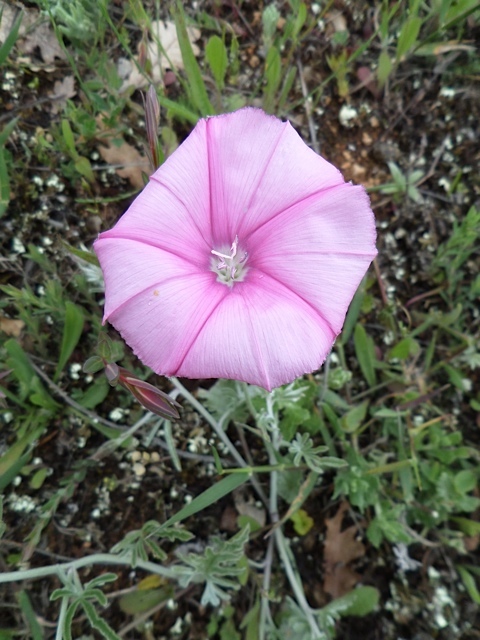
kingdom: Plantae
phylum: Tracheophyta
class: Magnoliopsida
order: Solanales
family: Convolvulaceae
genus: Convolvulus
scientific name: Convolvulus elegantissimus
